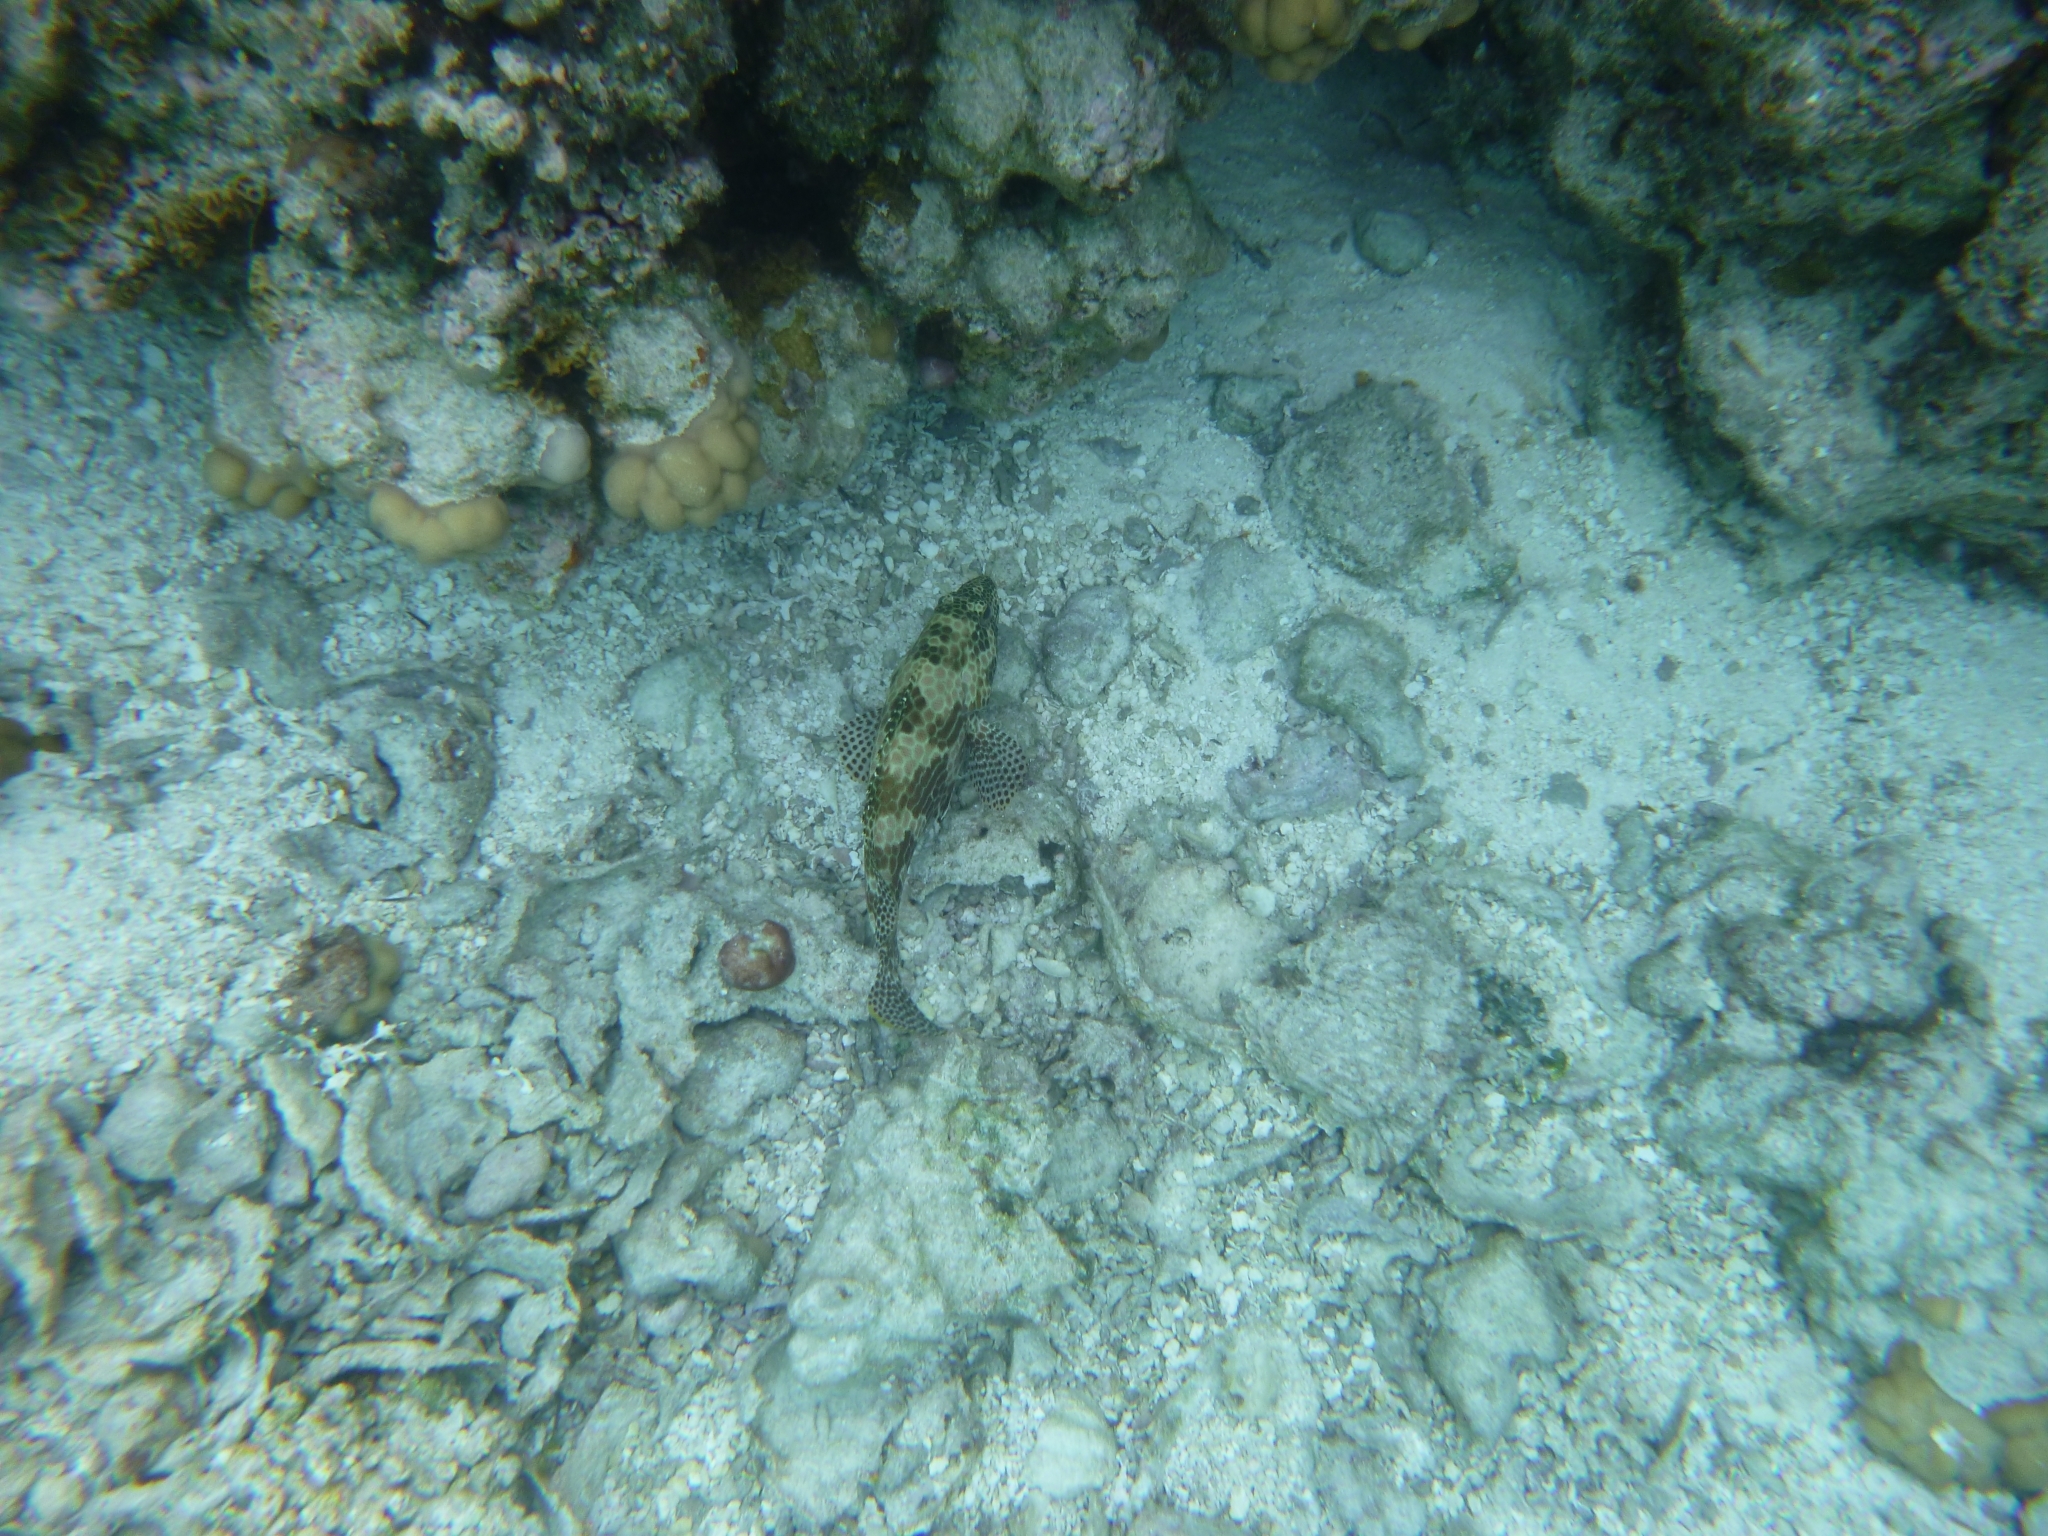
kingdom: Animalia
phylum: Chordata
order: Perciformes
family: Serranidae
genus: Epinephelus
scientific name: Epinephelus merra
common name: Honeycomb grouper
